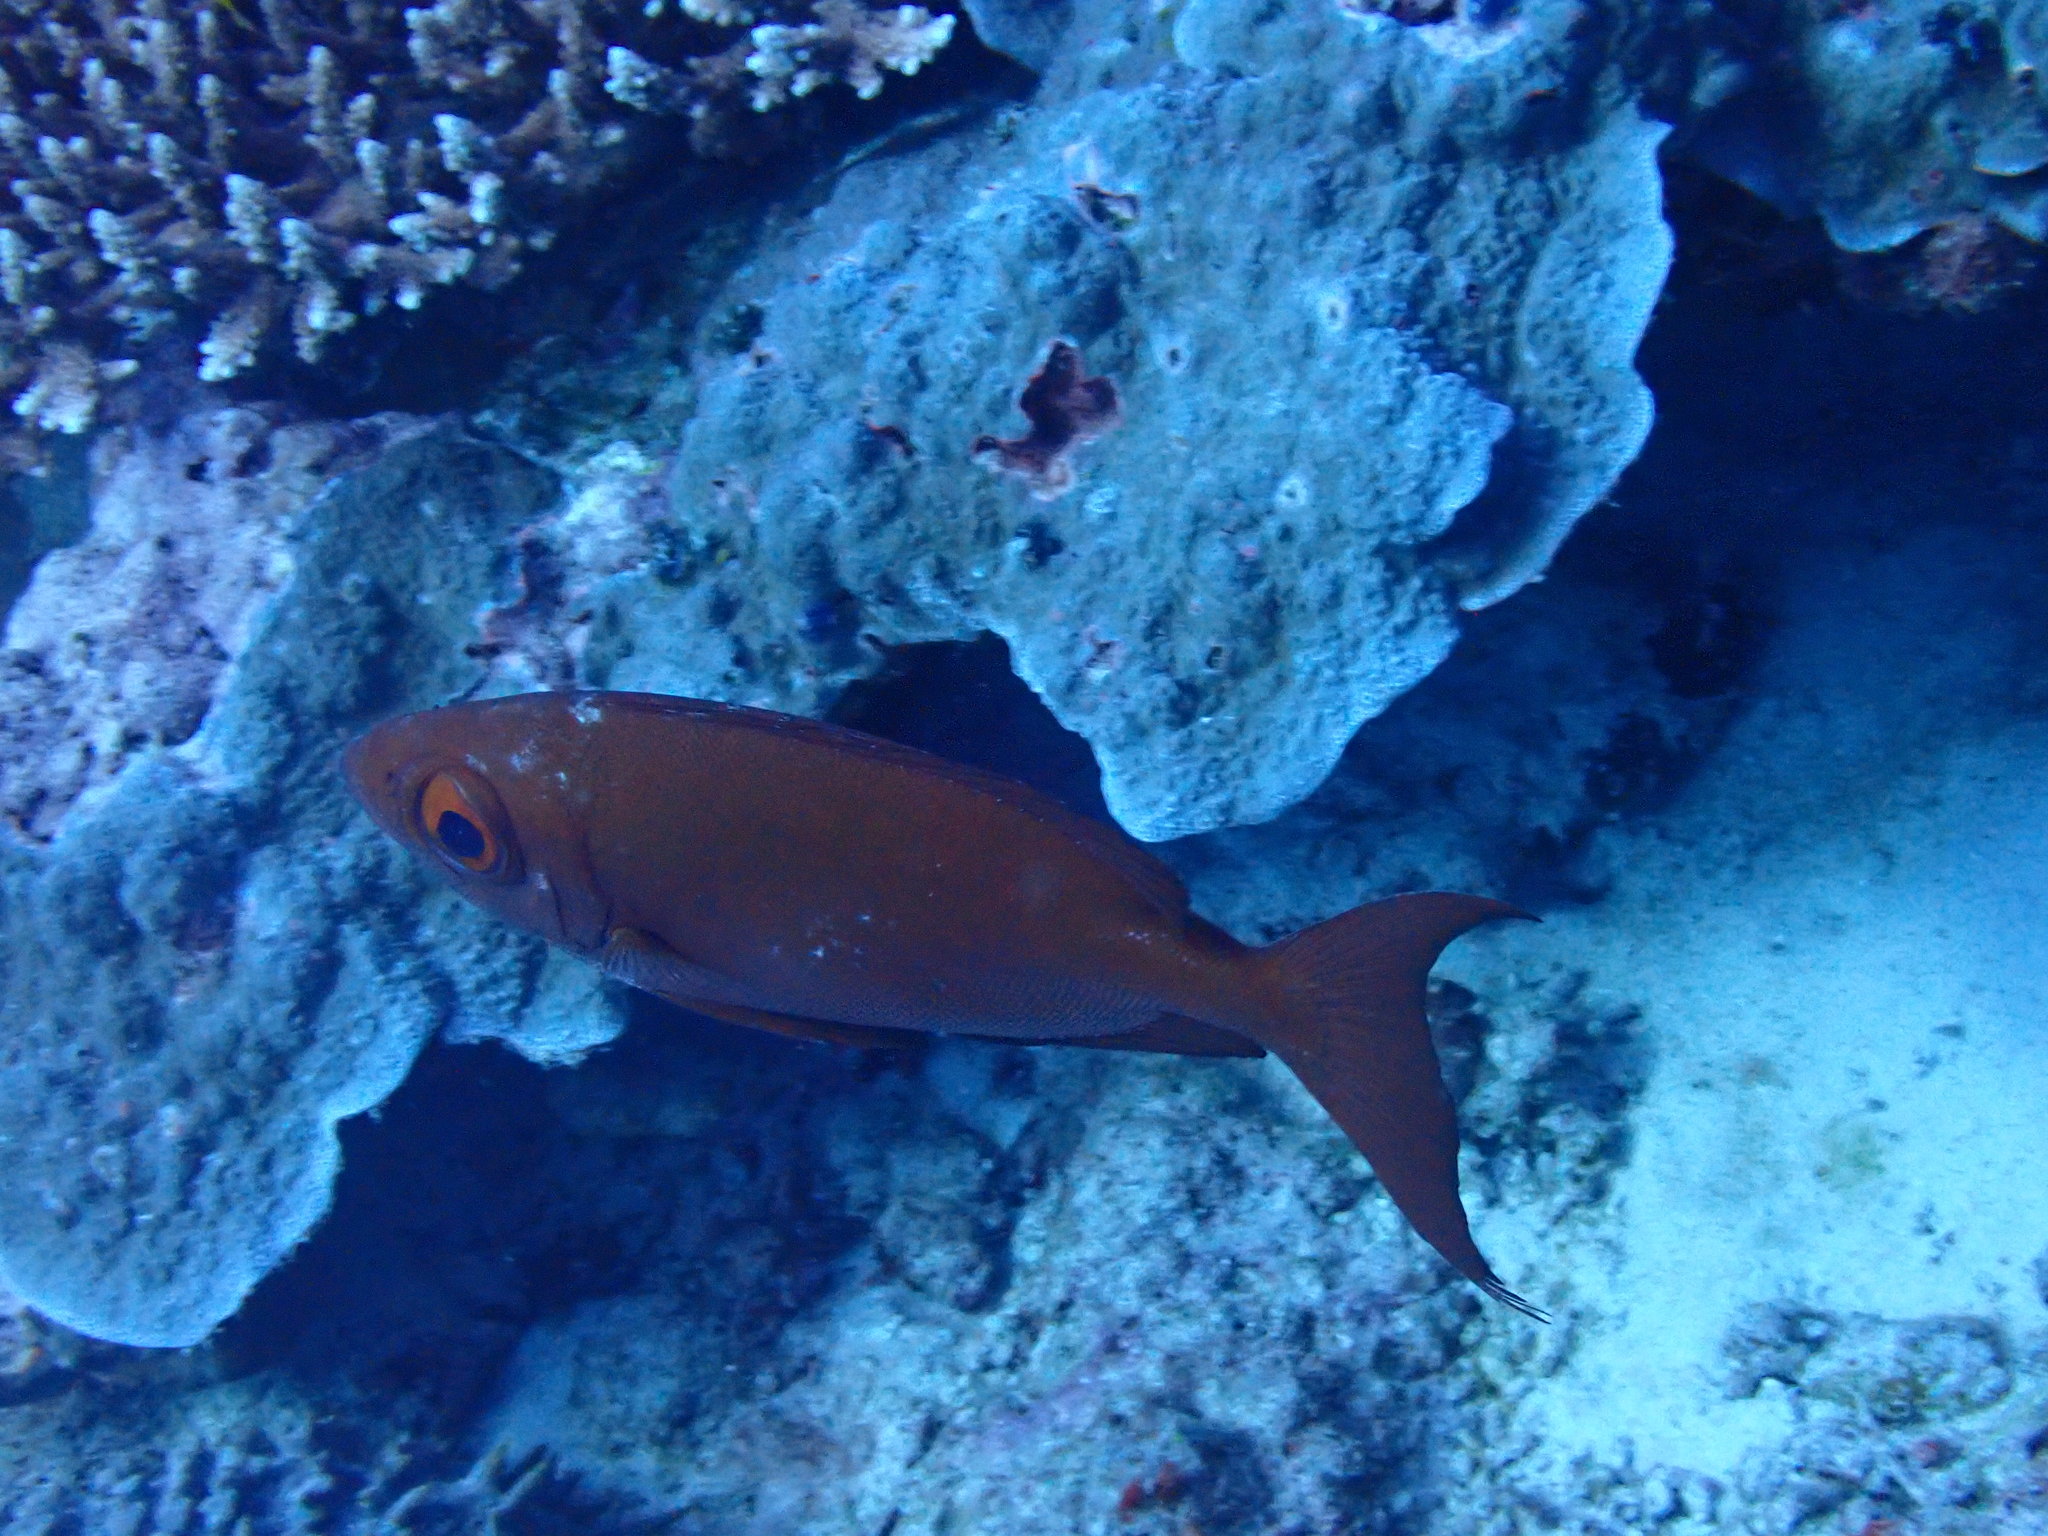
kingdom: Animalia
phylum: Chordata
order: Perciformes
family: Priacanthidae
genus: Priacanthus
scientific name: Priacanthus hamrur
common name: Moontail bullseye
